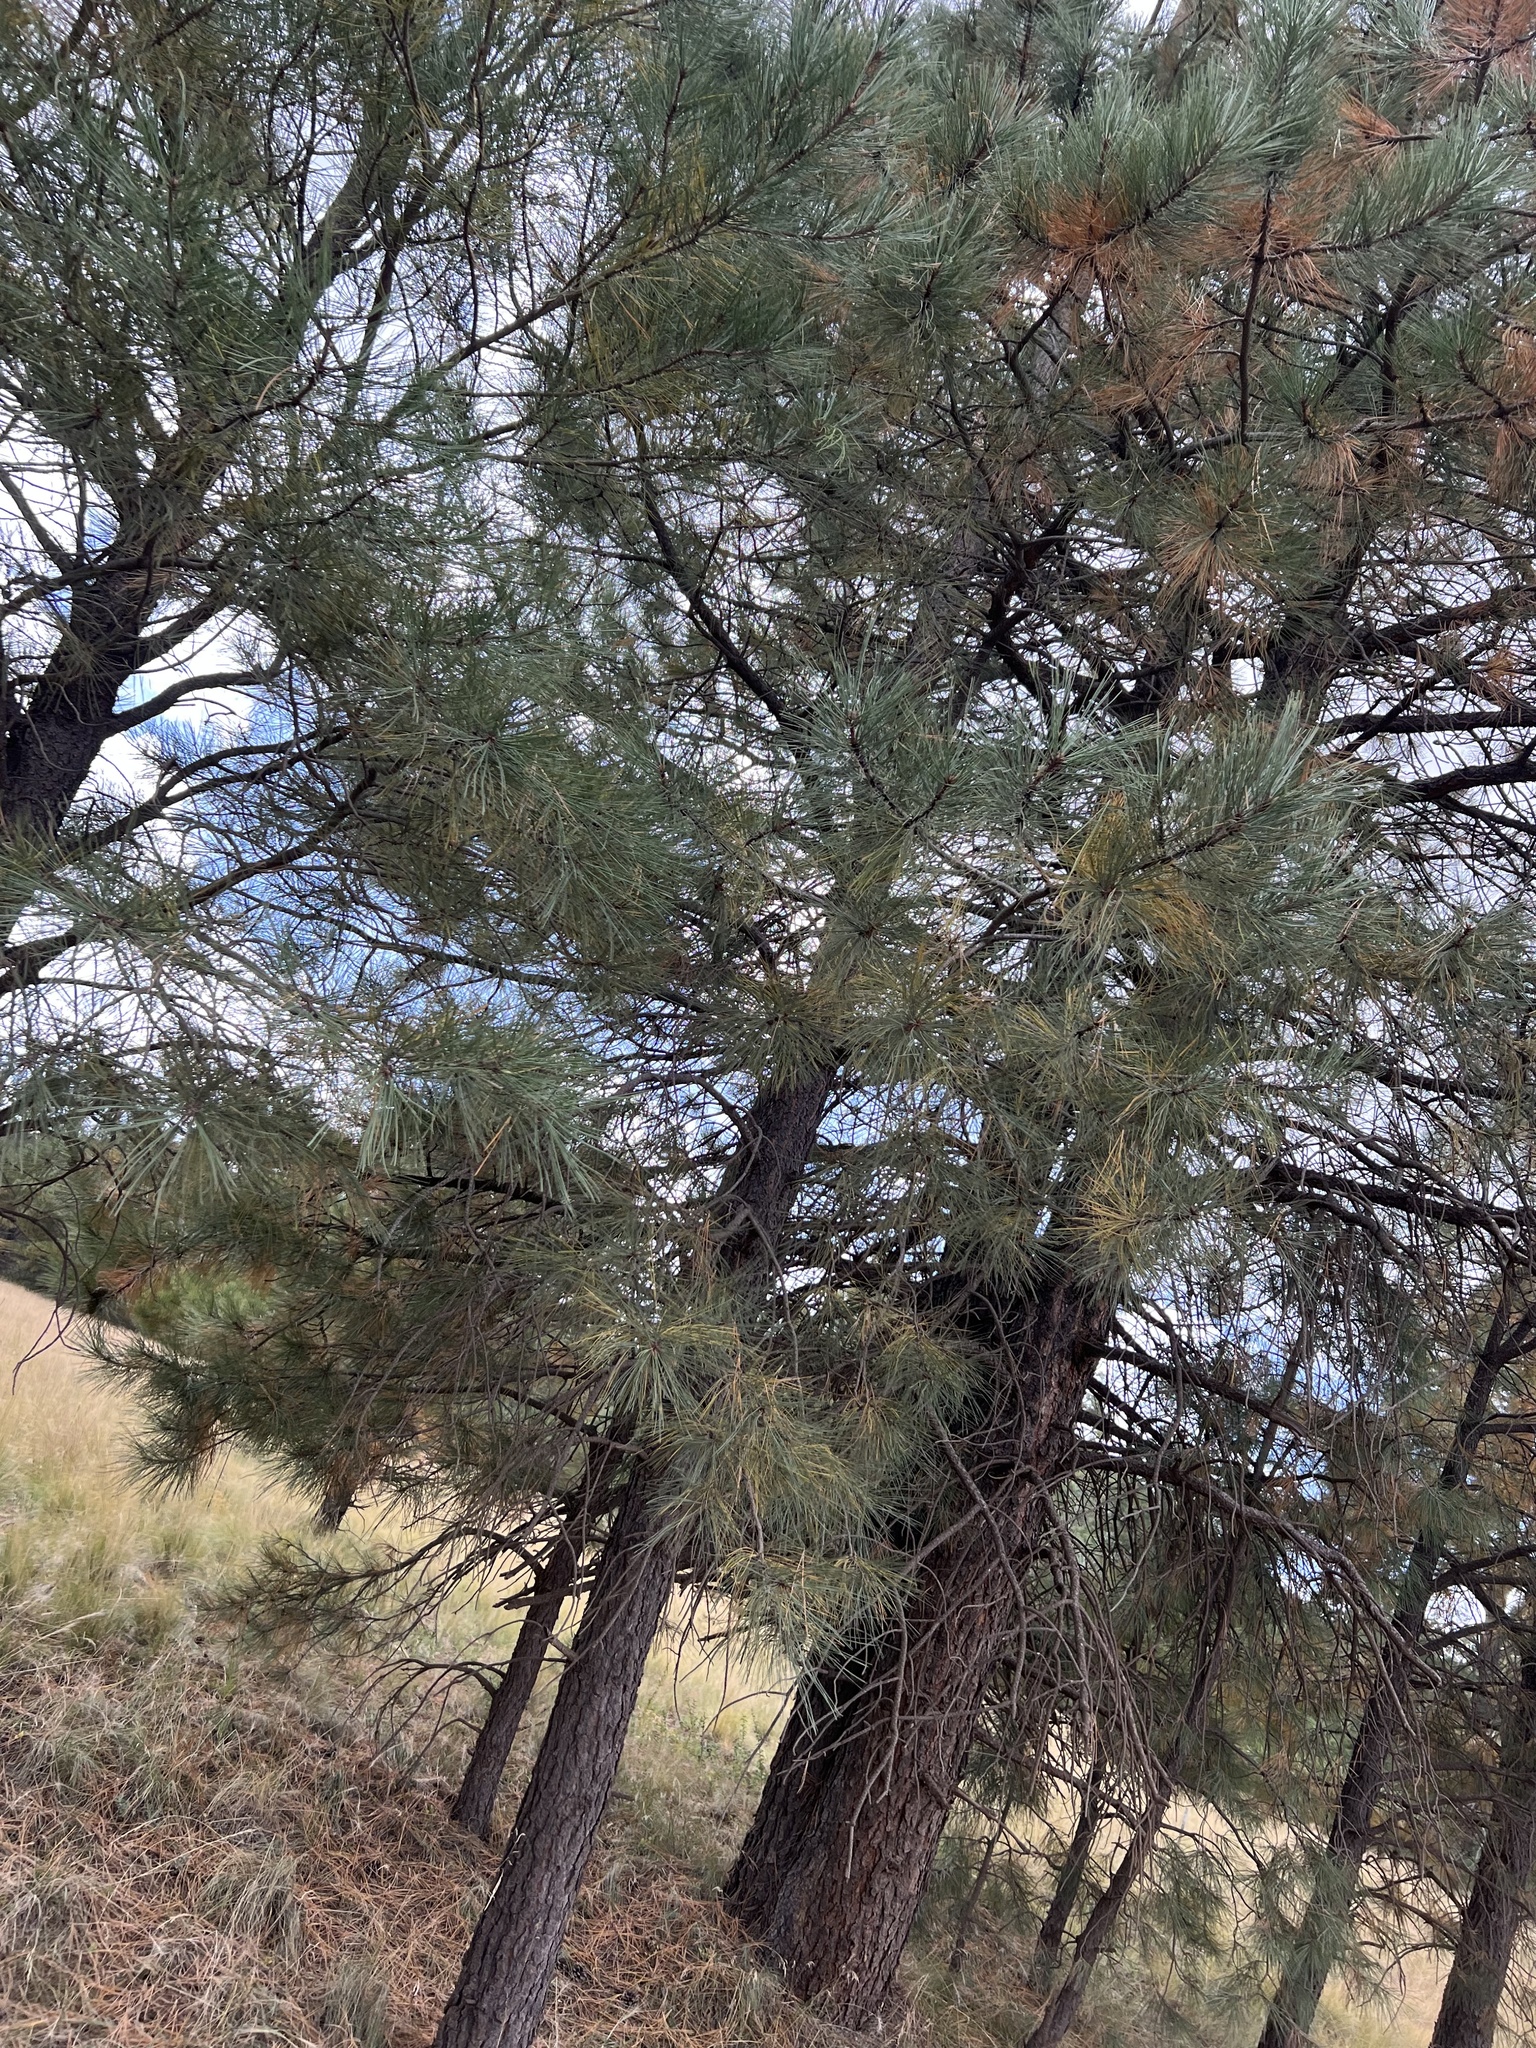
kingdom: Plantae
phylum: Tracheophyta
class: Pinopsida
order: Pinales
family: Pinaceae
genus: Pinus
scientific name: Pinus ponderosa
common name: Western yellow-pine
